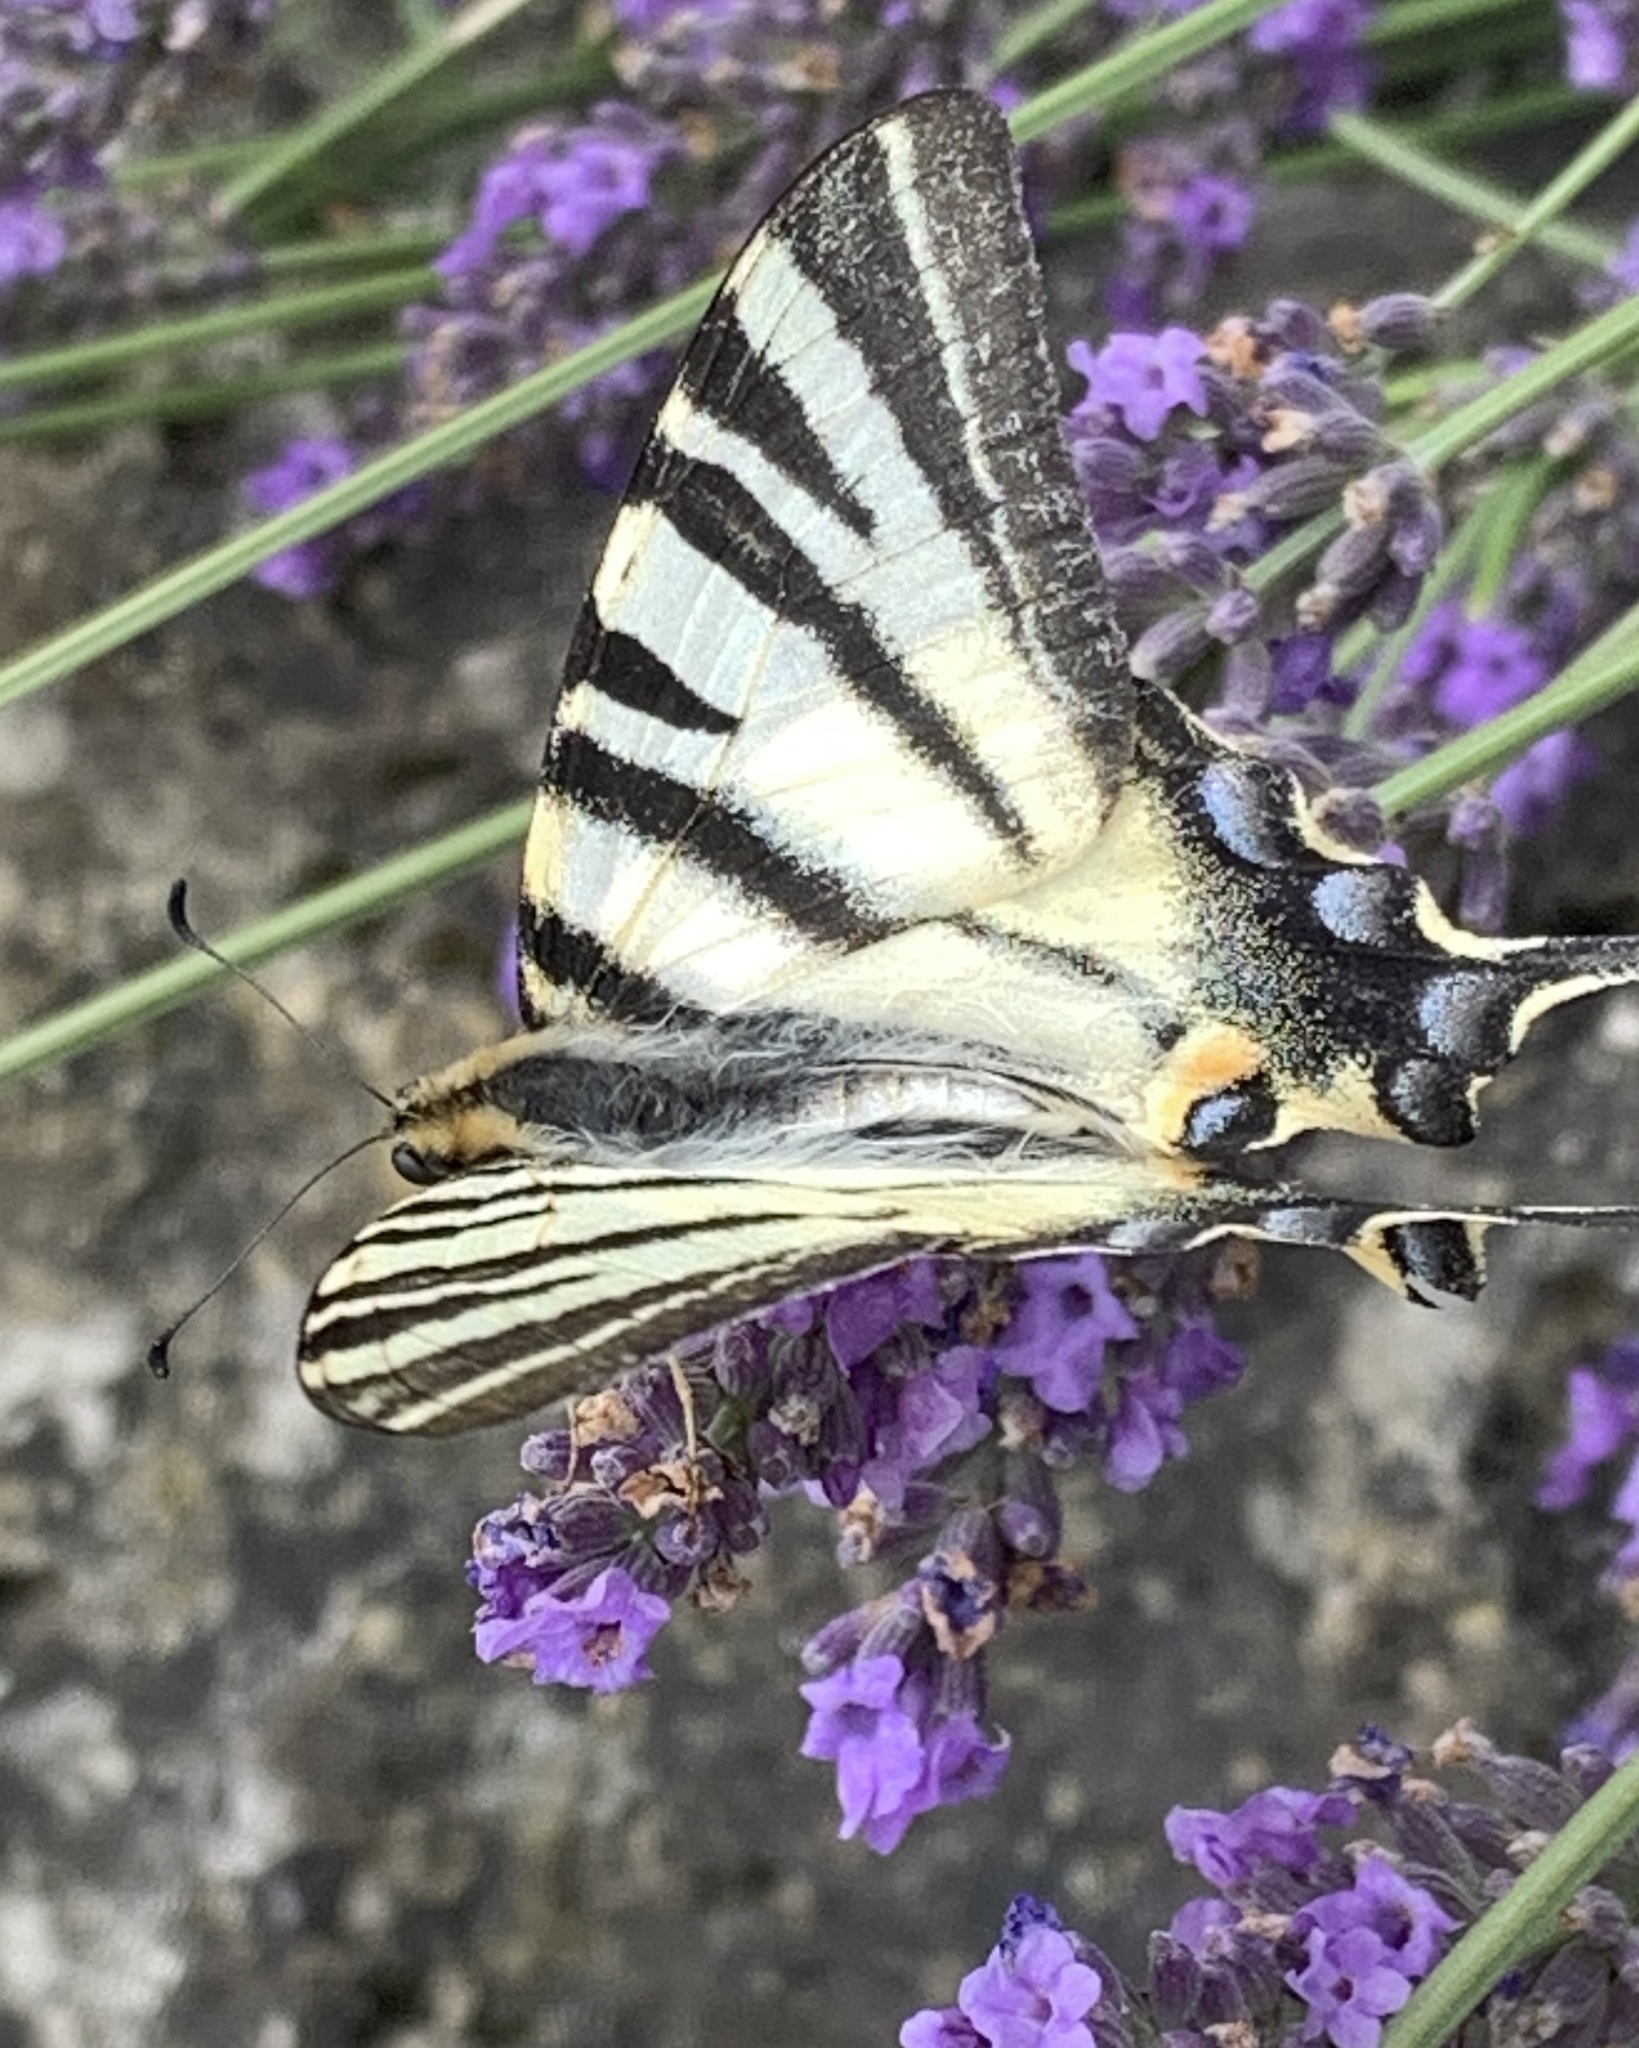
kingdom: Animalia
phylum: Arthropoda
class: Insecta
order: Lepidoptera
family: Papilionidae
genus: Iphiclides
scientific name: Iphiclides podalirius
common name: Scarce swallowtail
